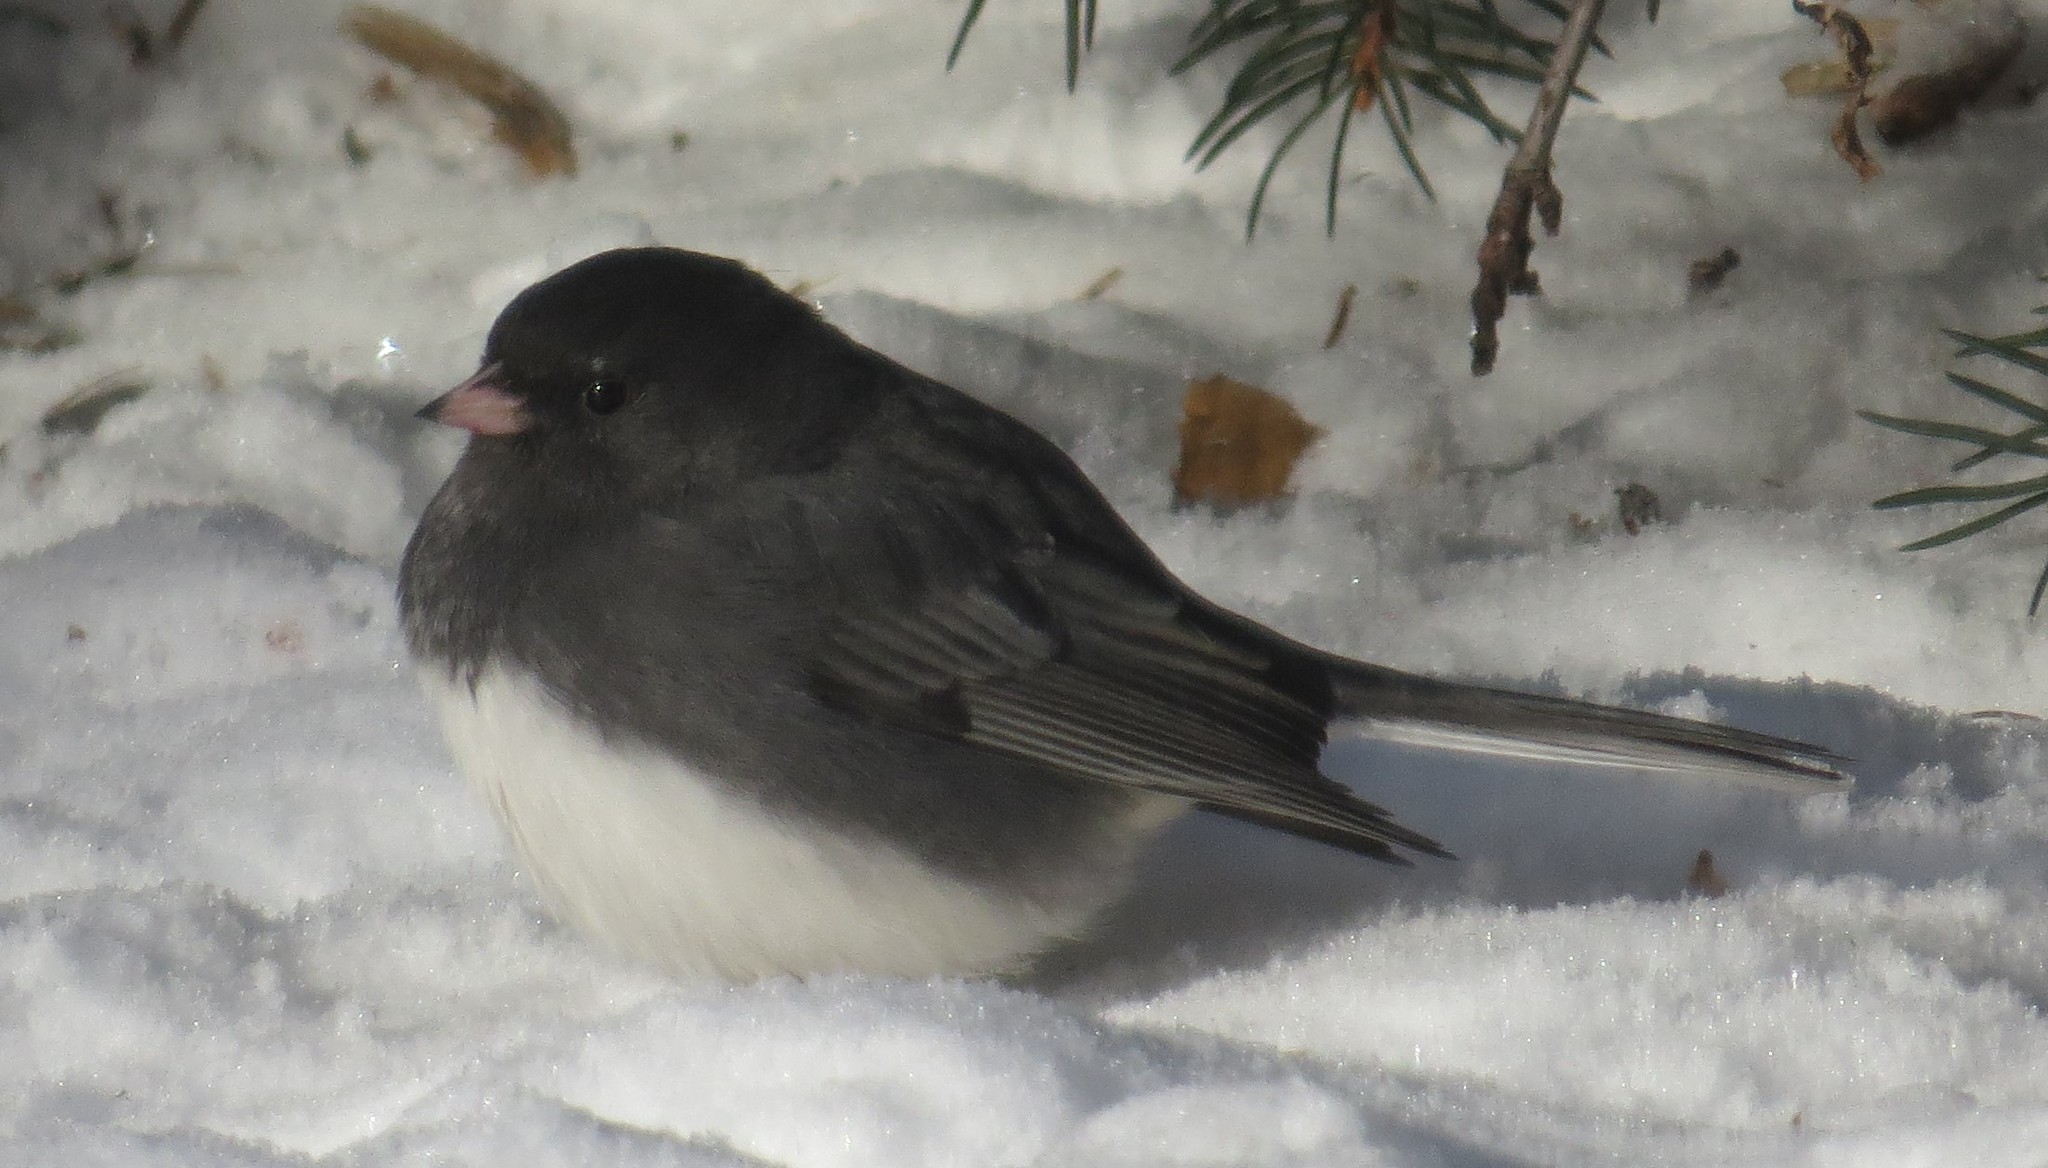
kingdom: Animalia
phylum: Chordata
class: Aves
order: Passeriformes
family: Passerellidae
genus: Junco
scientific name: Junco hyemalis
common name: Dark-eyed junco
